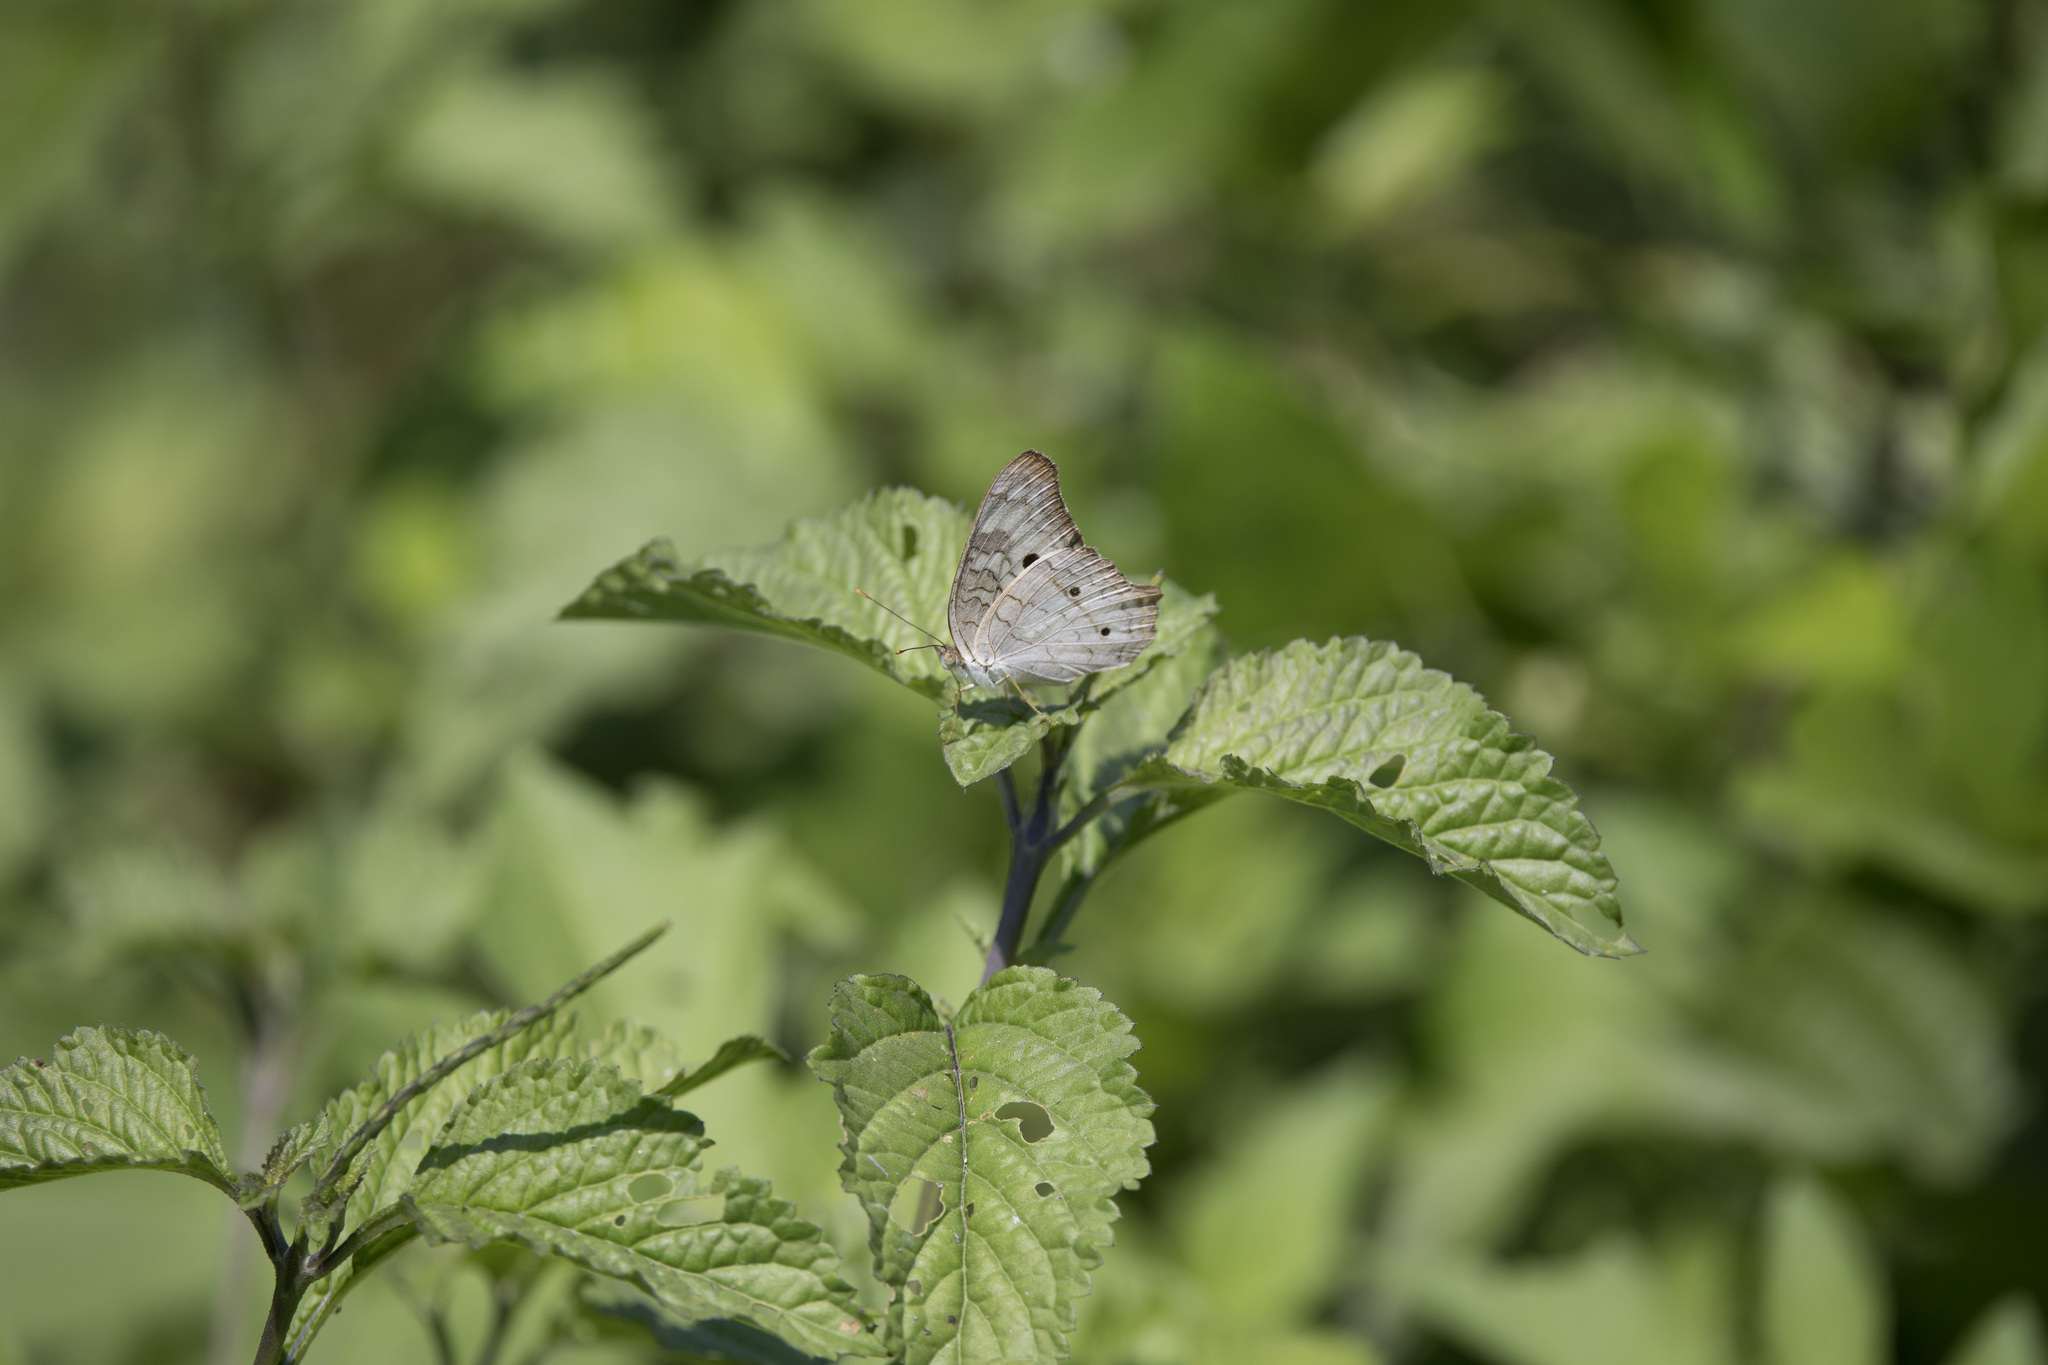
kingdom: Animalia
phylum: Arthropoda
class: Insecta
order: Lepidoptera
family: Nymphalidae
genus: Anartia
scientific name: Anartia jatrophae
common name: White peacock
